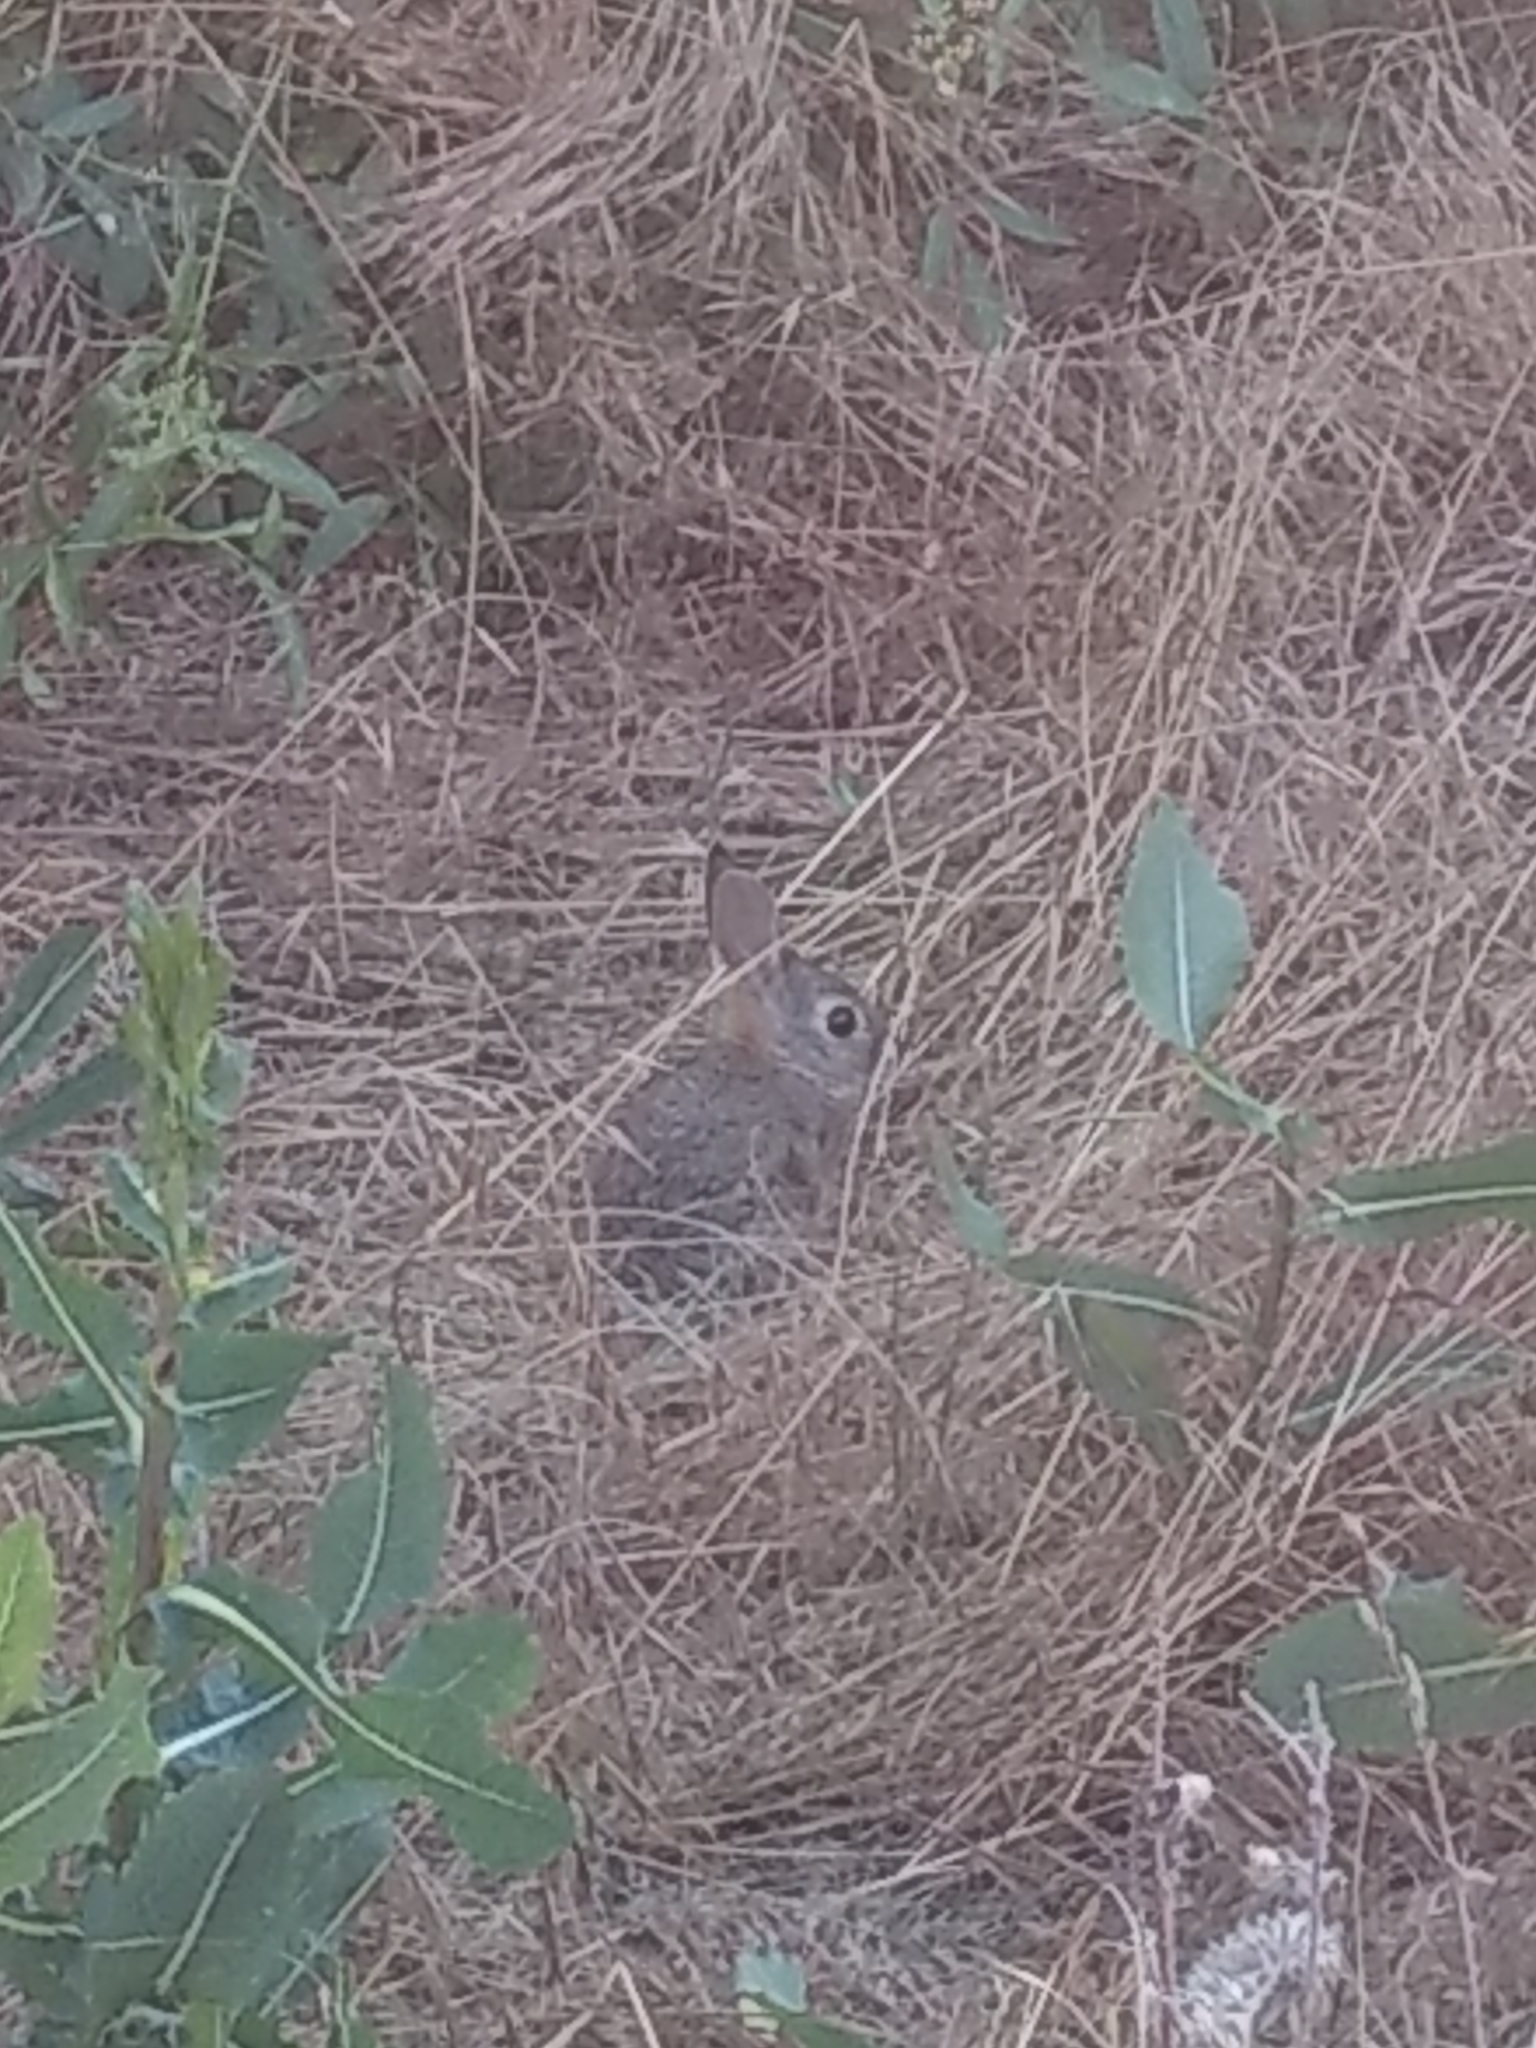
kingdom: Animalia
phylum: Chordata
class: Mammalia
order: Lagomorpha
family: Leporidae
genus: Sylvilagus
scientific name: Sylvilagus audubonii
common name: Desert cottontail
